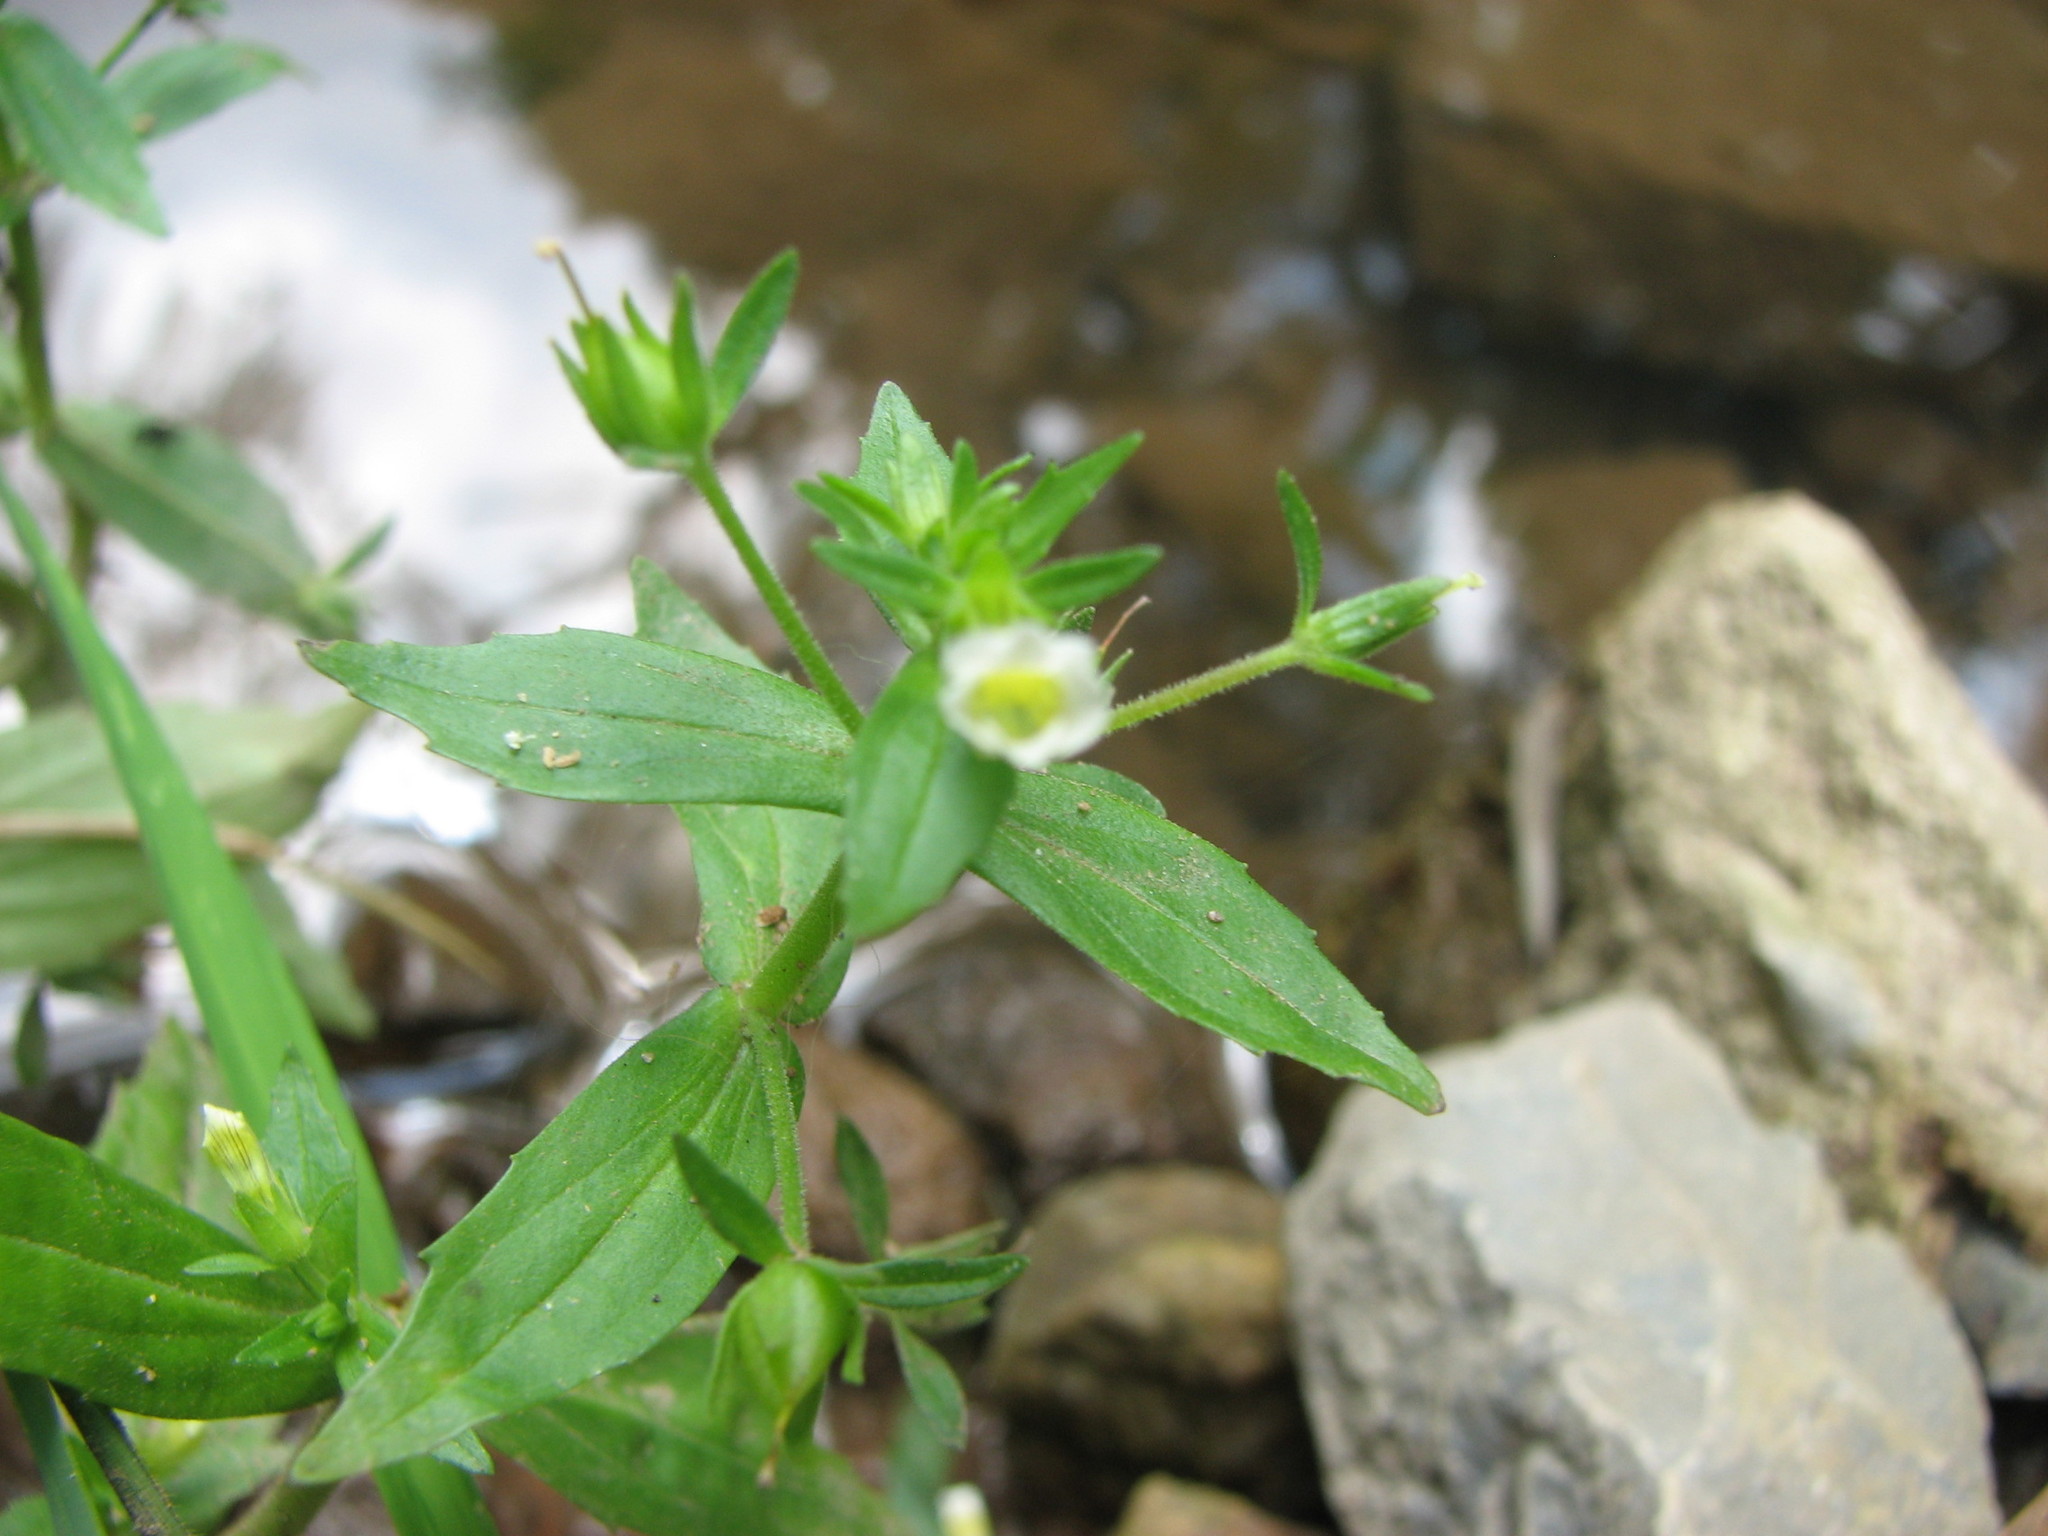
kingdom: Plantae
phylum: Tracheophyta
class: Magnoliopsida
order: Lamiales
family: Plantaginaceae
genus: Gratiola
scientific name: Gratiola neglecta
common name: American hedge-hyssop
